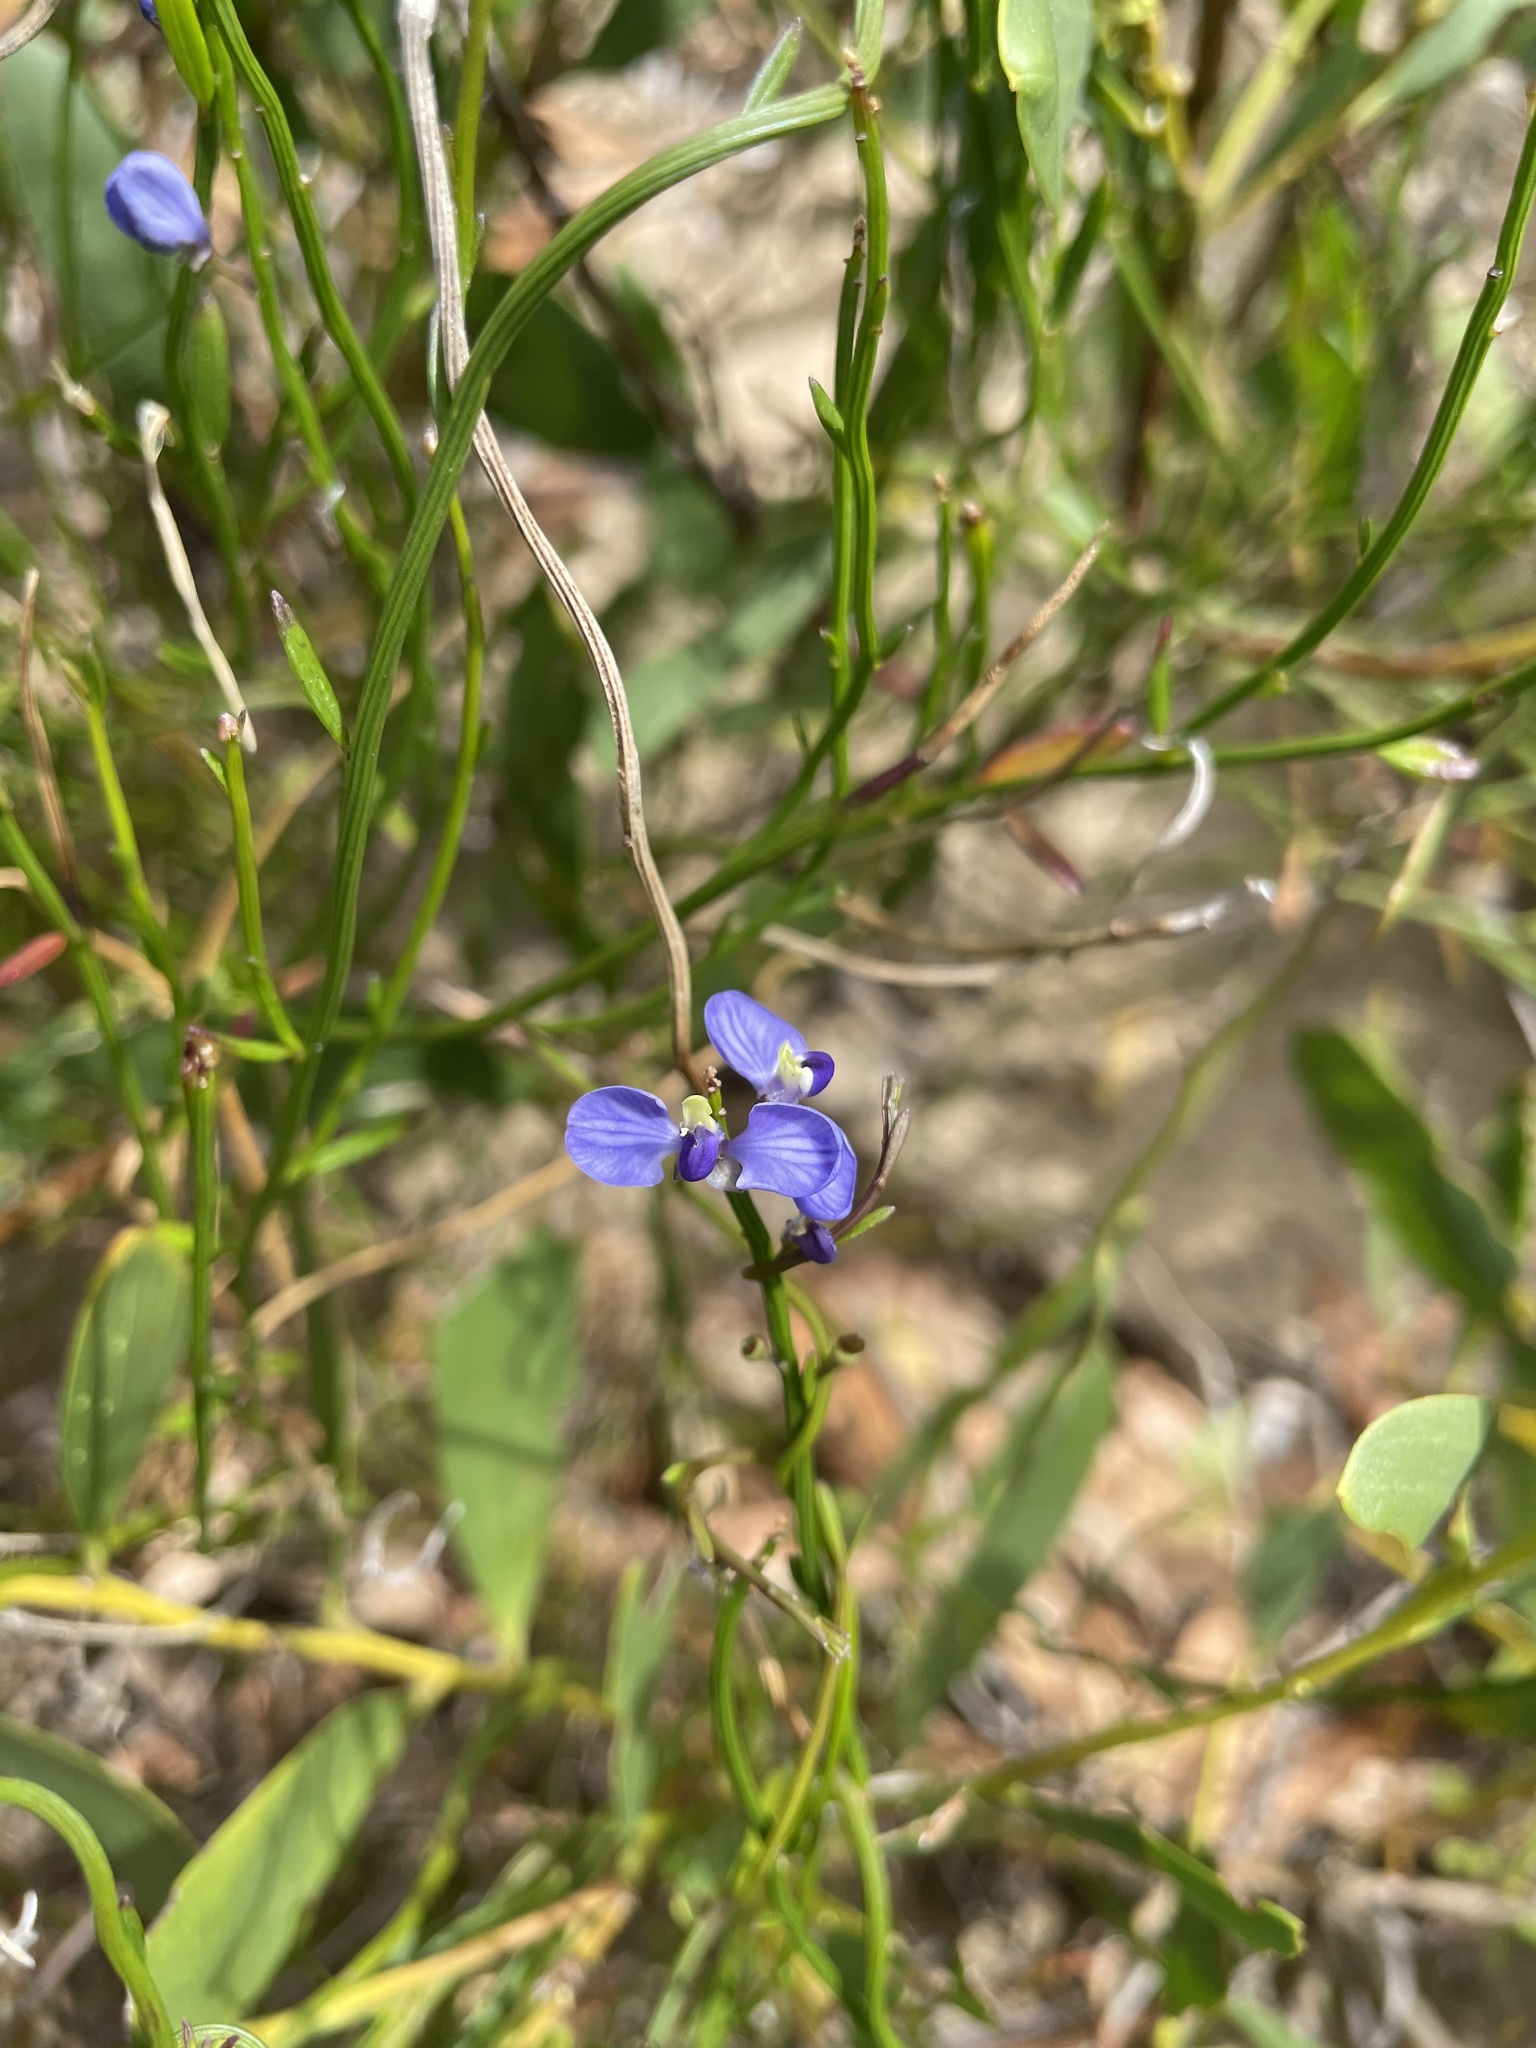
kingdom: Plantae
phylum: Tracheophyta
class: Magnoliopsida
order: Fabales
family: Polygalaceae
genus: Comesperma
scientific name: Comesperma volubile
